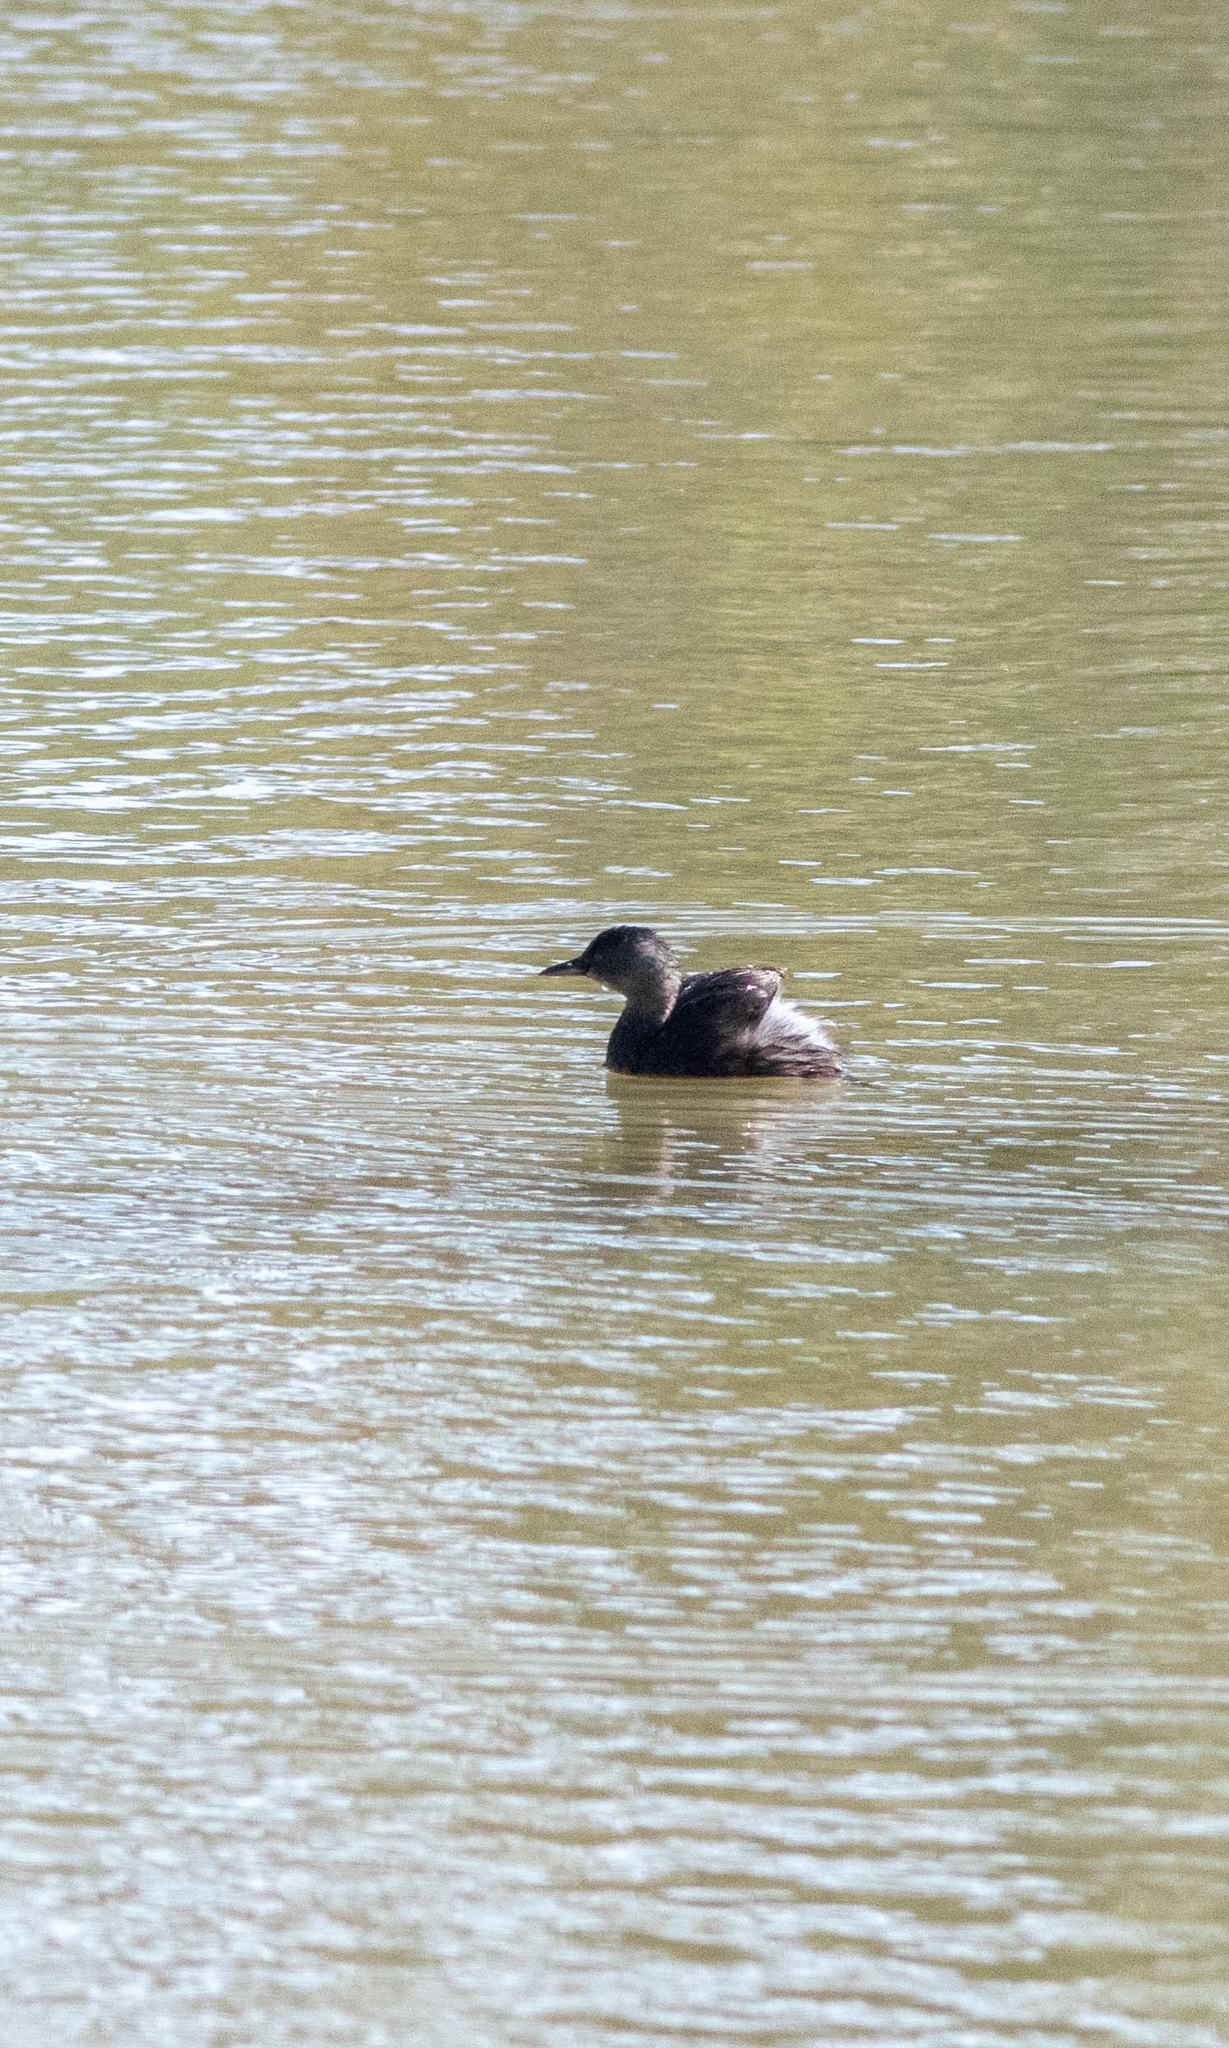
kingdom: Animalia
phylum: Chordata
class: Aves
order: Podicipediformes
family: Podicipedidae
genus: Tachybaptus
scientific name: Tachybaptus dominicus
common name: Least grebe
